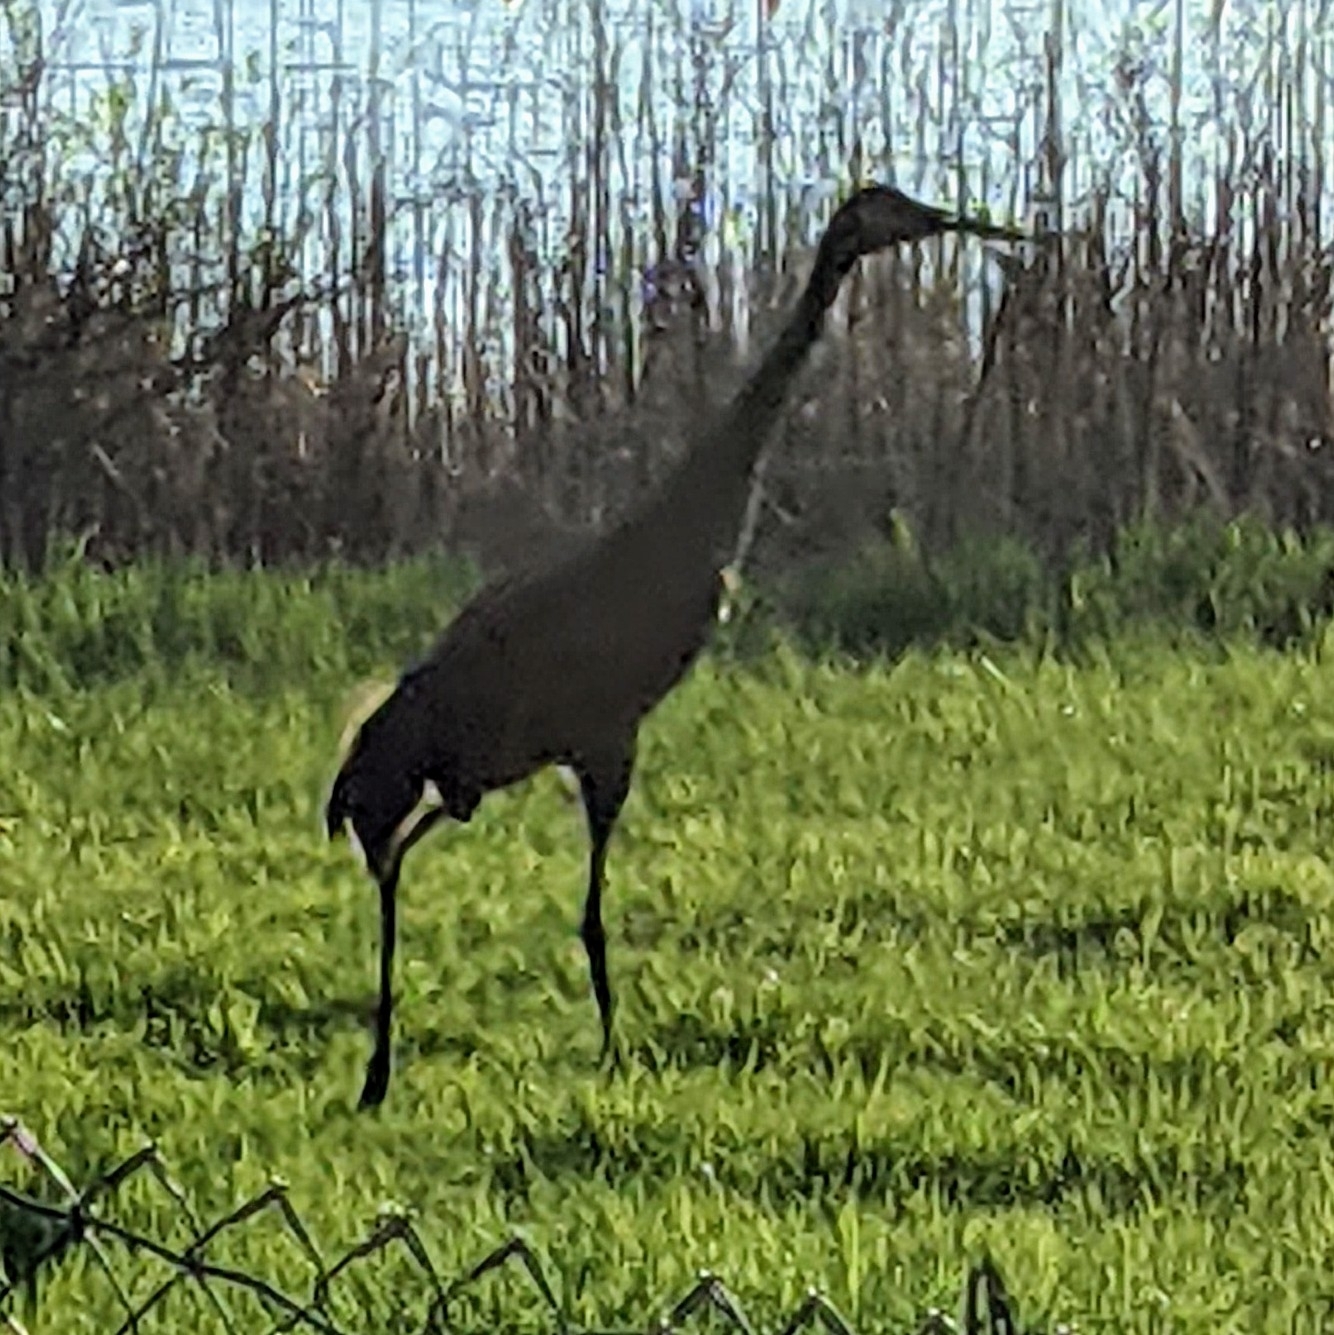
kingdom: Animalia
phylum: Chordata
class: Aves
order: Gruiformes
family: Gruidae
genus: Grus
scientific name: Grus canadensis
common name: Sandhill crane
